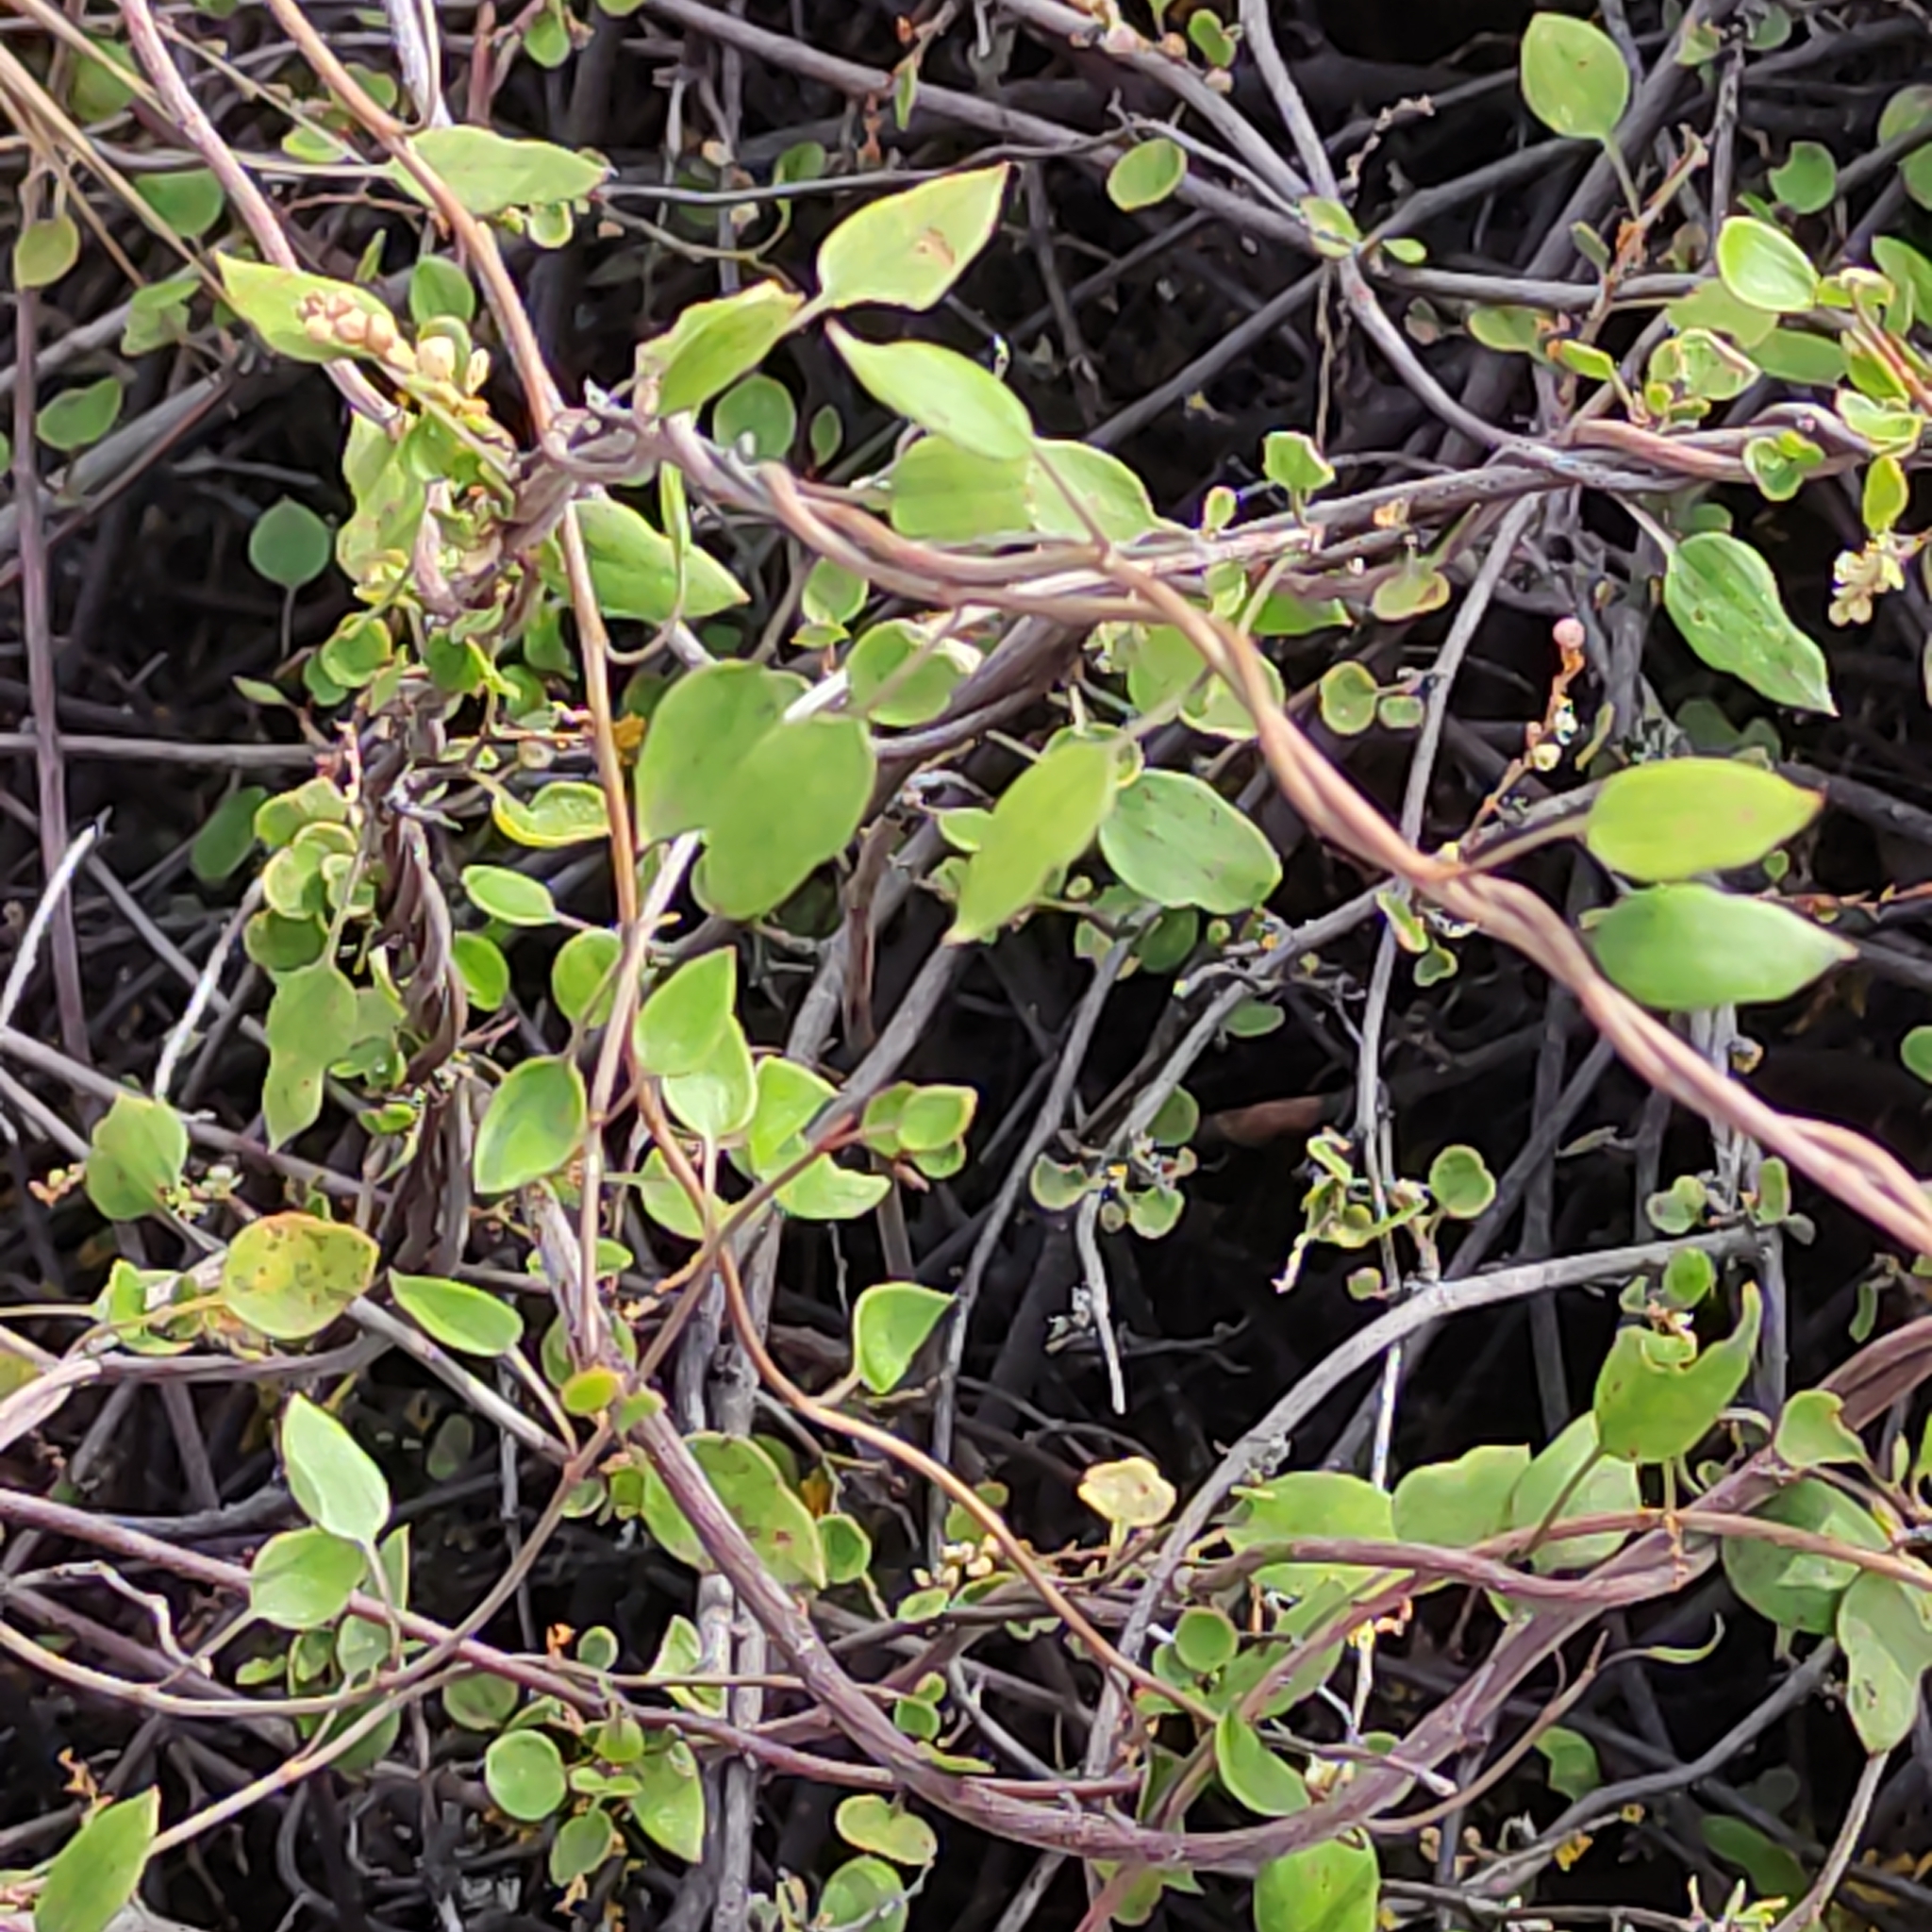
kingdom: Plantae
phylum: Tracheophyta
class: Magnoliopsida
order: Caryophyllales
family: Polygonaceae
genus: Muehlenbeckia
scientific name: Muehlenbeckia complexa
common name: Wireplant
